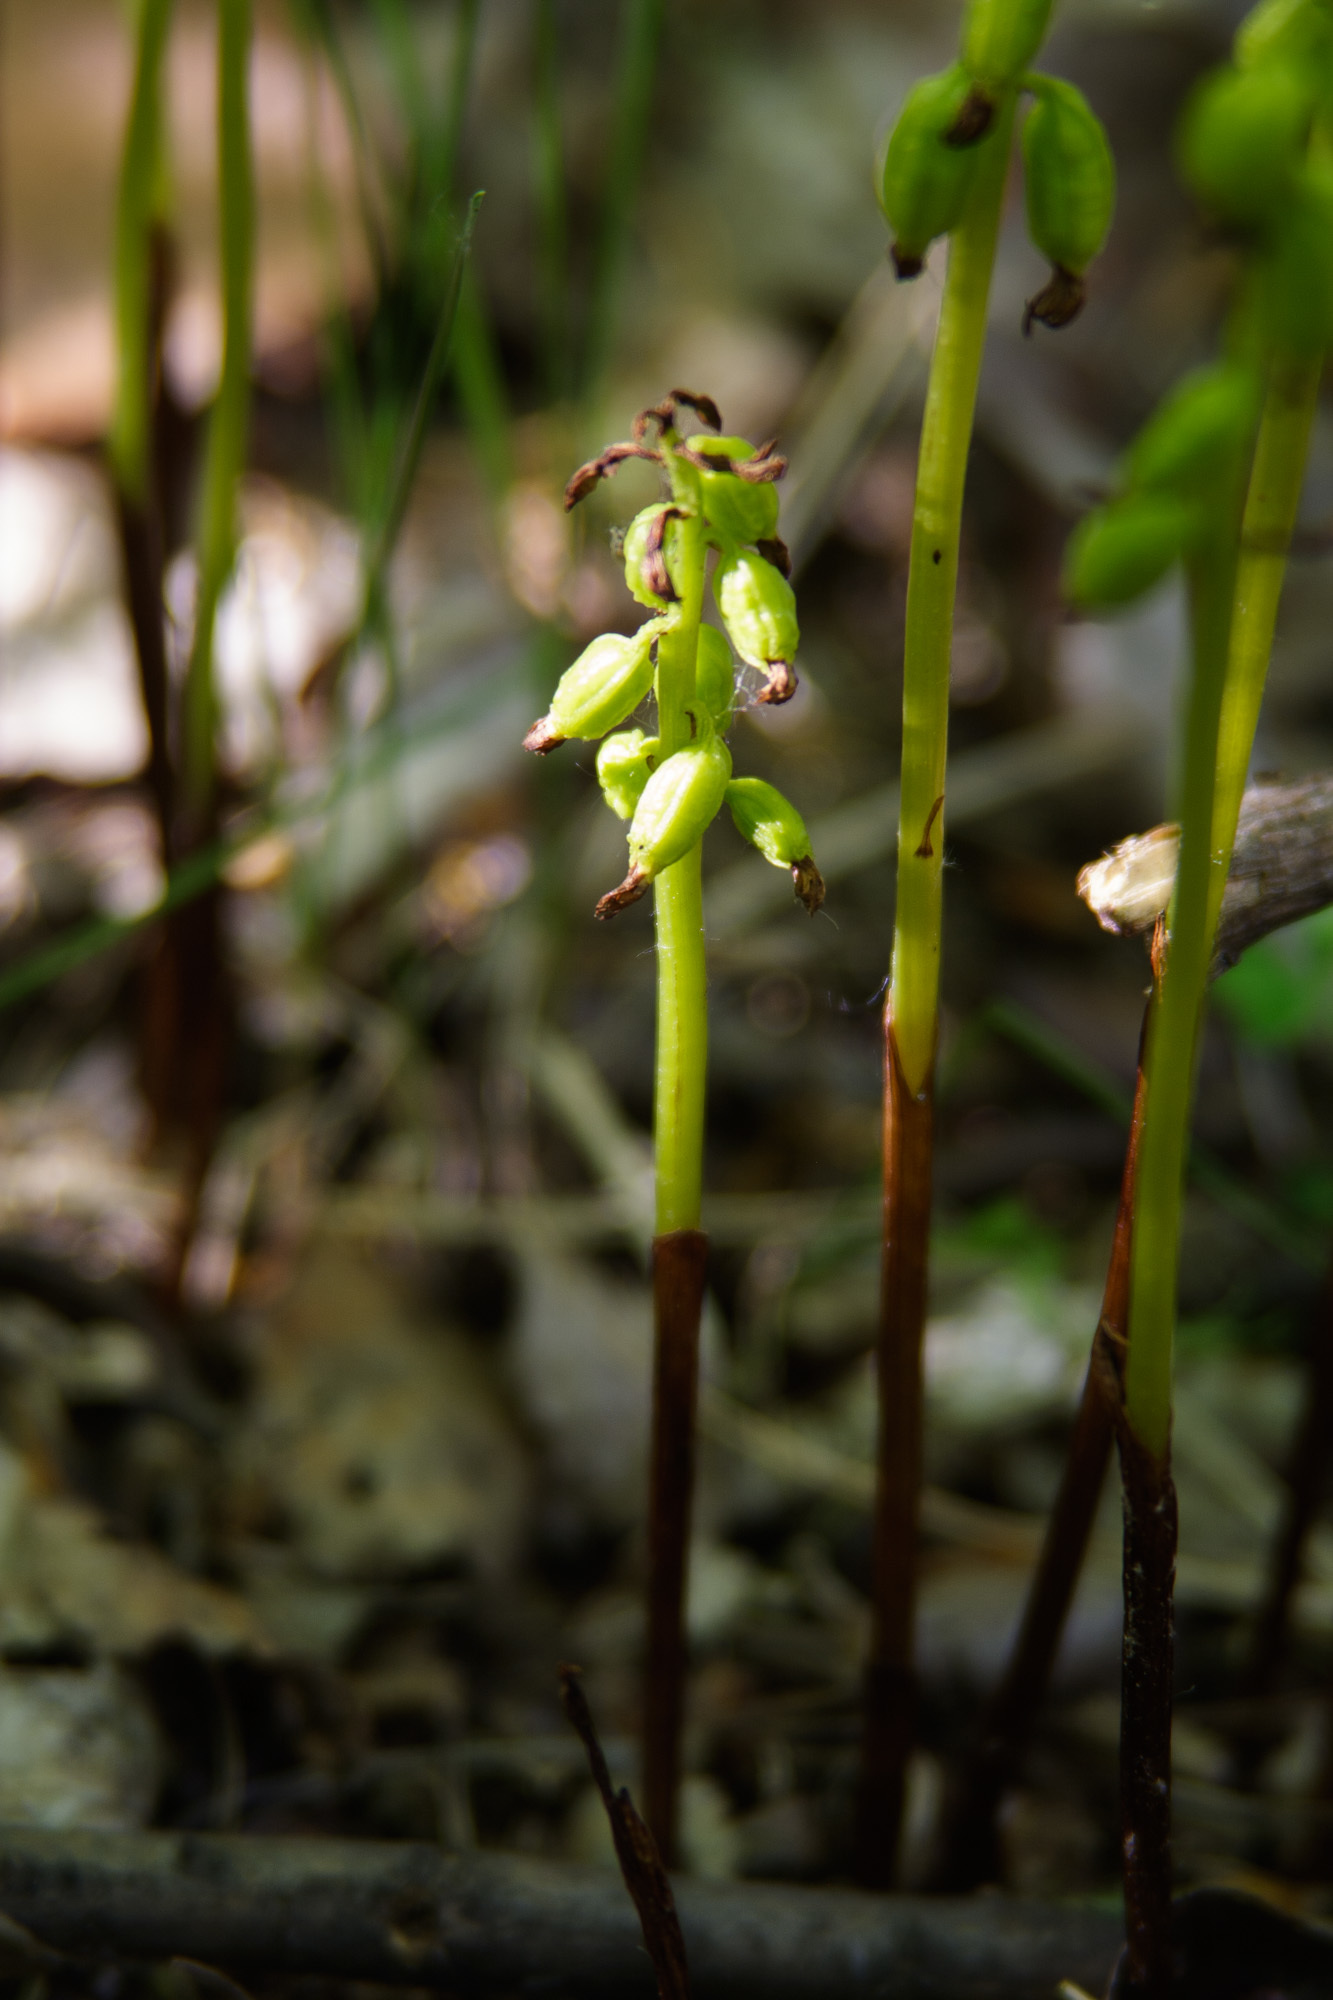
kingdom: Plantae
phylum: Tracheophyta
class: Liliopsida
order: Asparagales
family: Orchidaceae
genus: Corallorhiza
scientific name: Corallorhiza trifida
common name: Yellow coralroot
